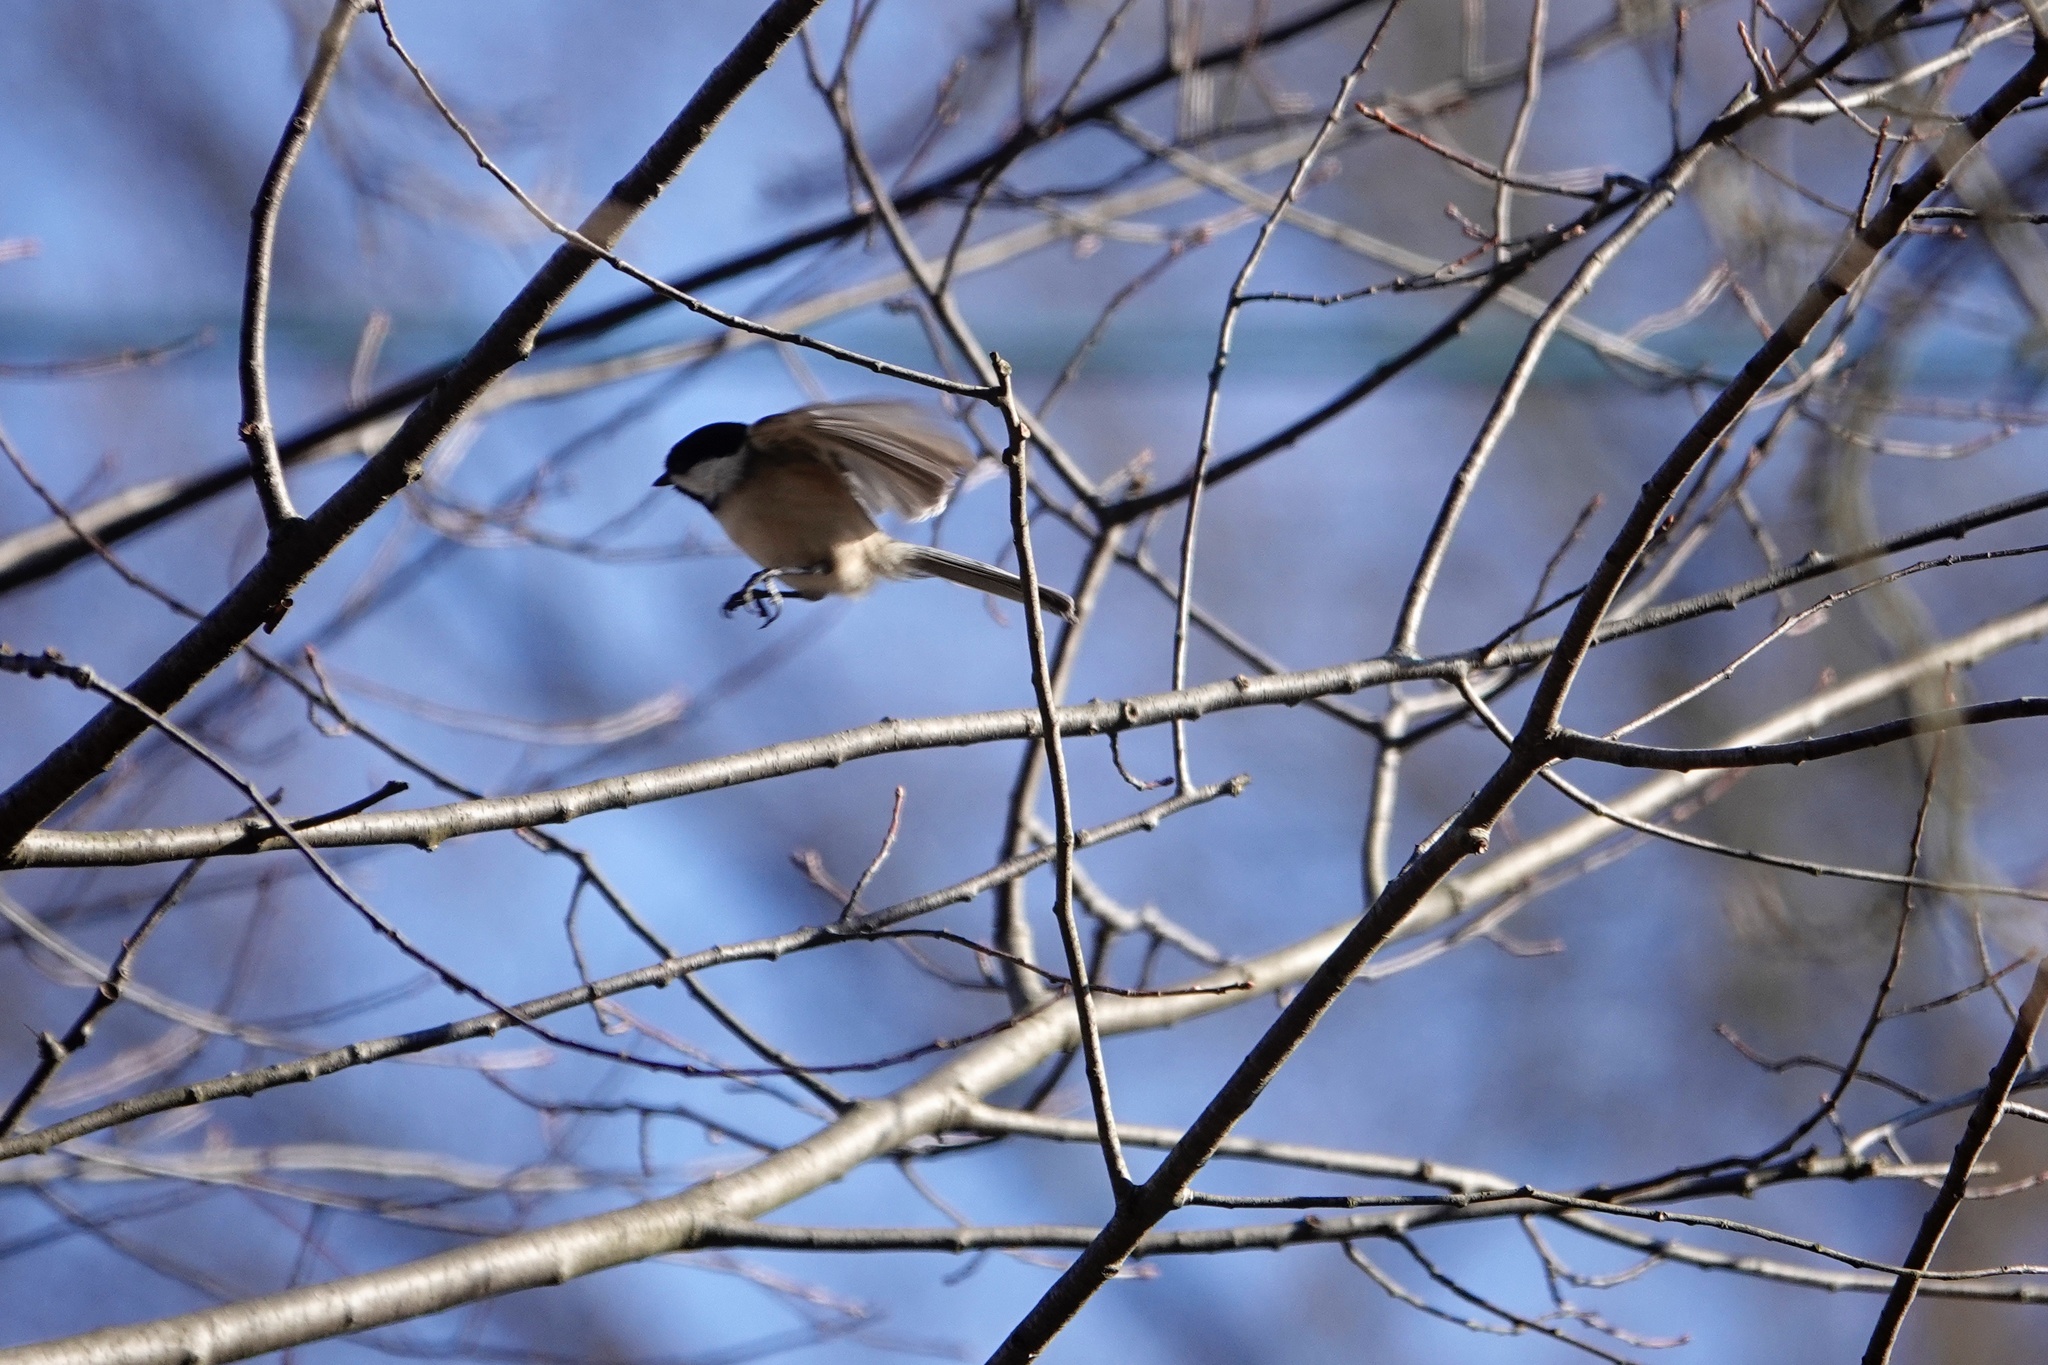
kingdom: Animalia
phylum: Chordata
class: Aves
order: Passeriformes
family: Paridae
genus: Poecile
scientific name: Poecile atricapillus
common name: Black-capped chickadee
